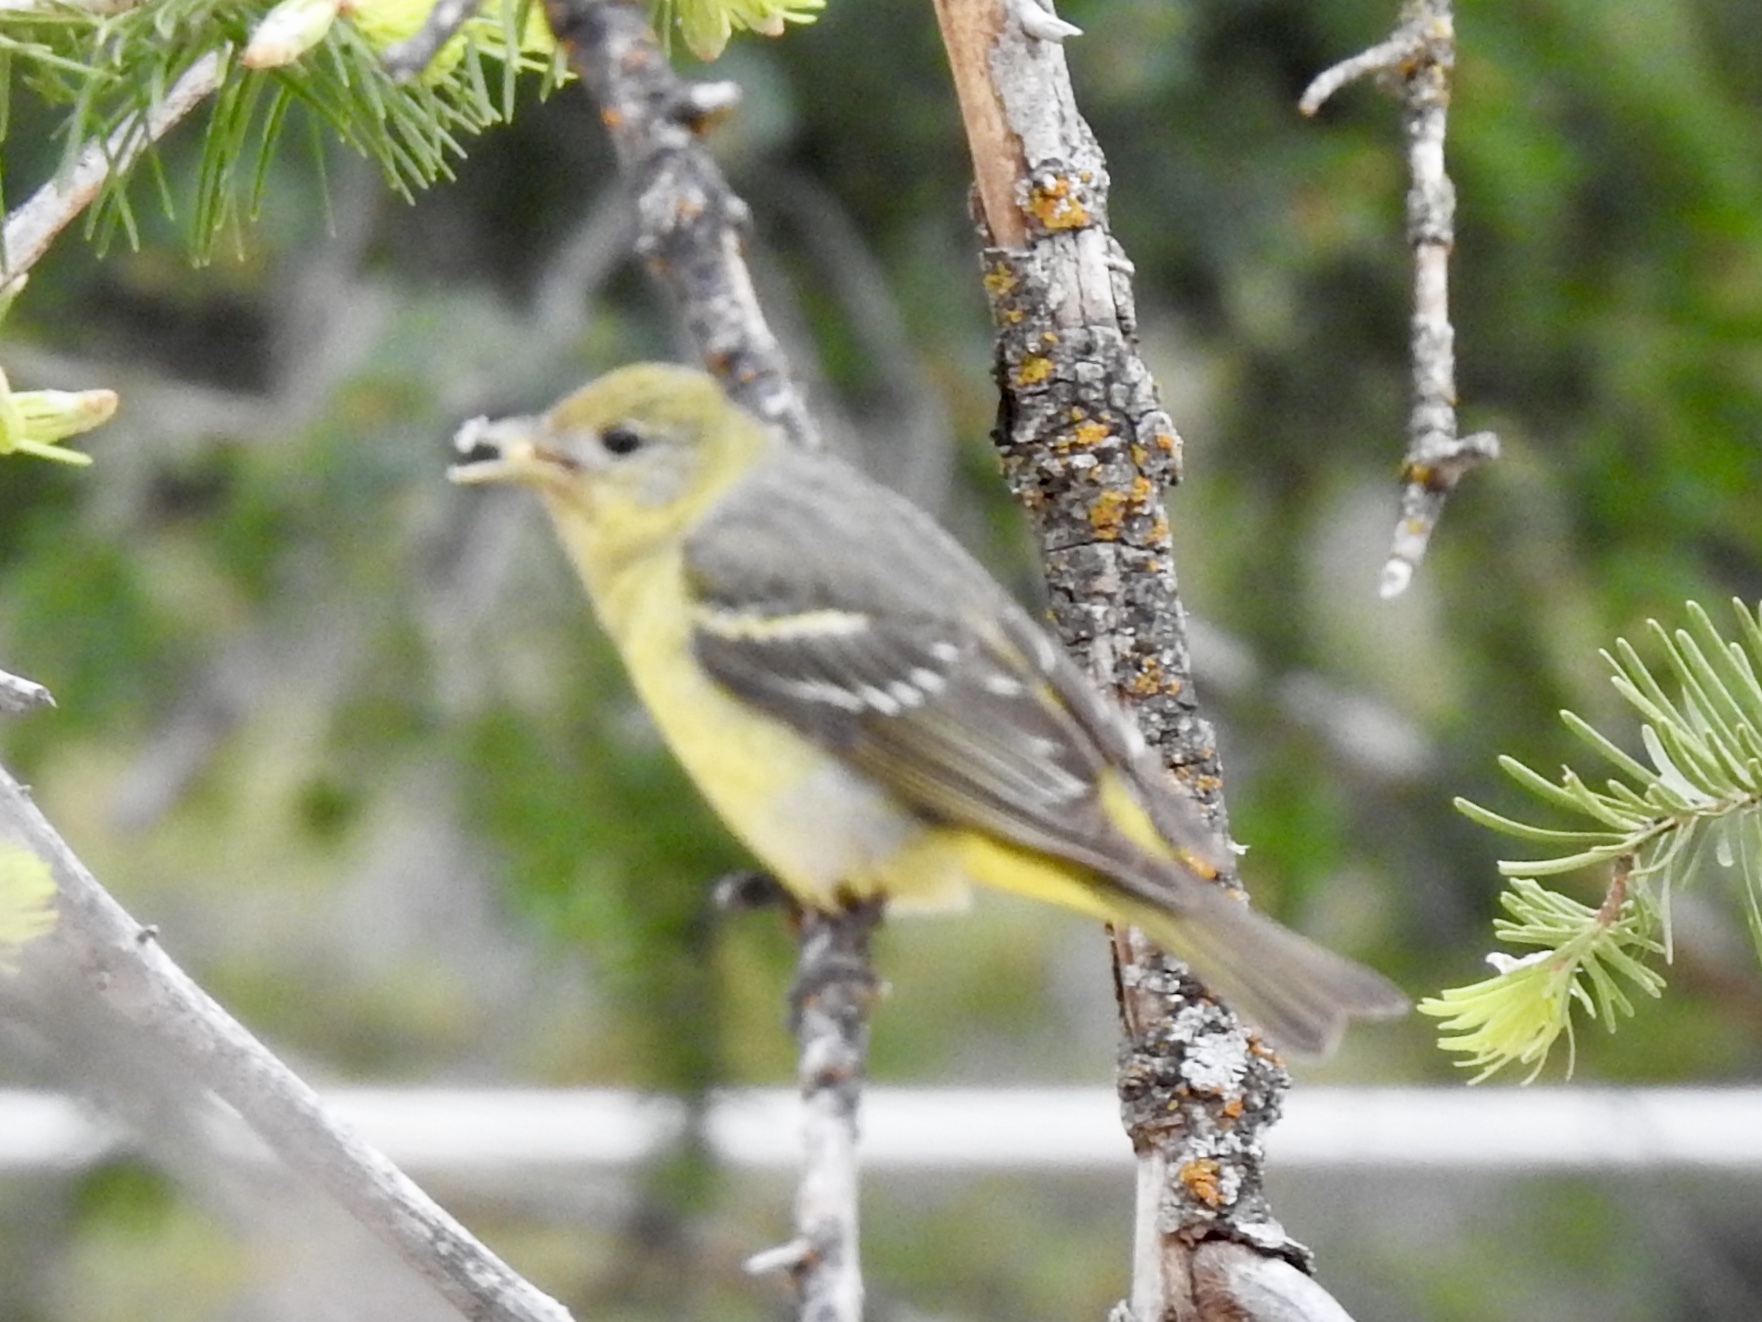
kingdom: Animalia
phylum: Chordata
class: Aves
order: Passeriformes
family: Cardinalidae
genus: Piranga
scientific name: Piranga ludoviciana
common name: Western tanager
